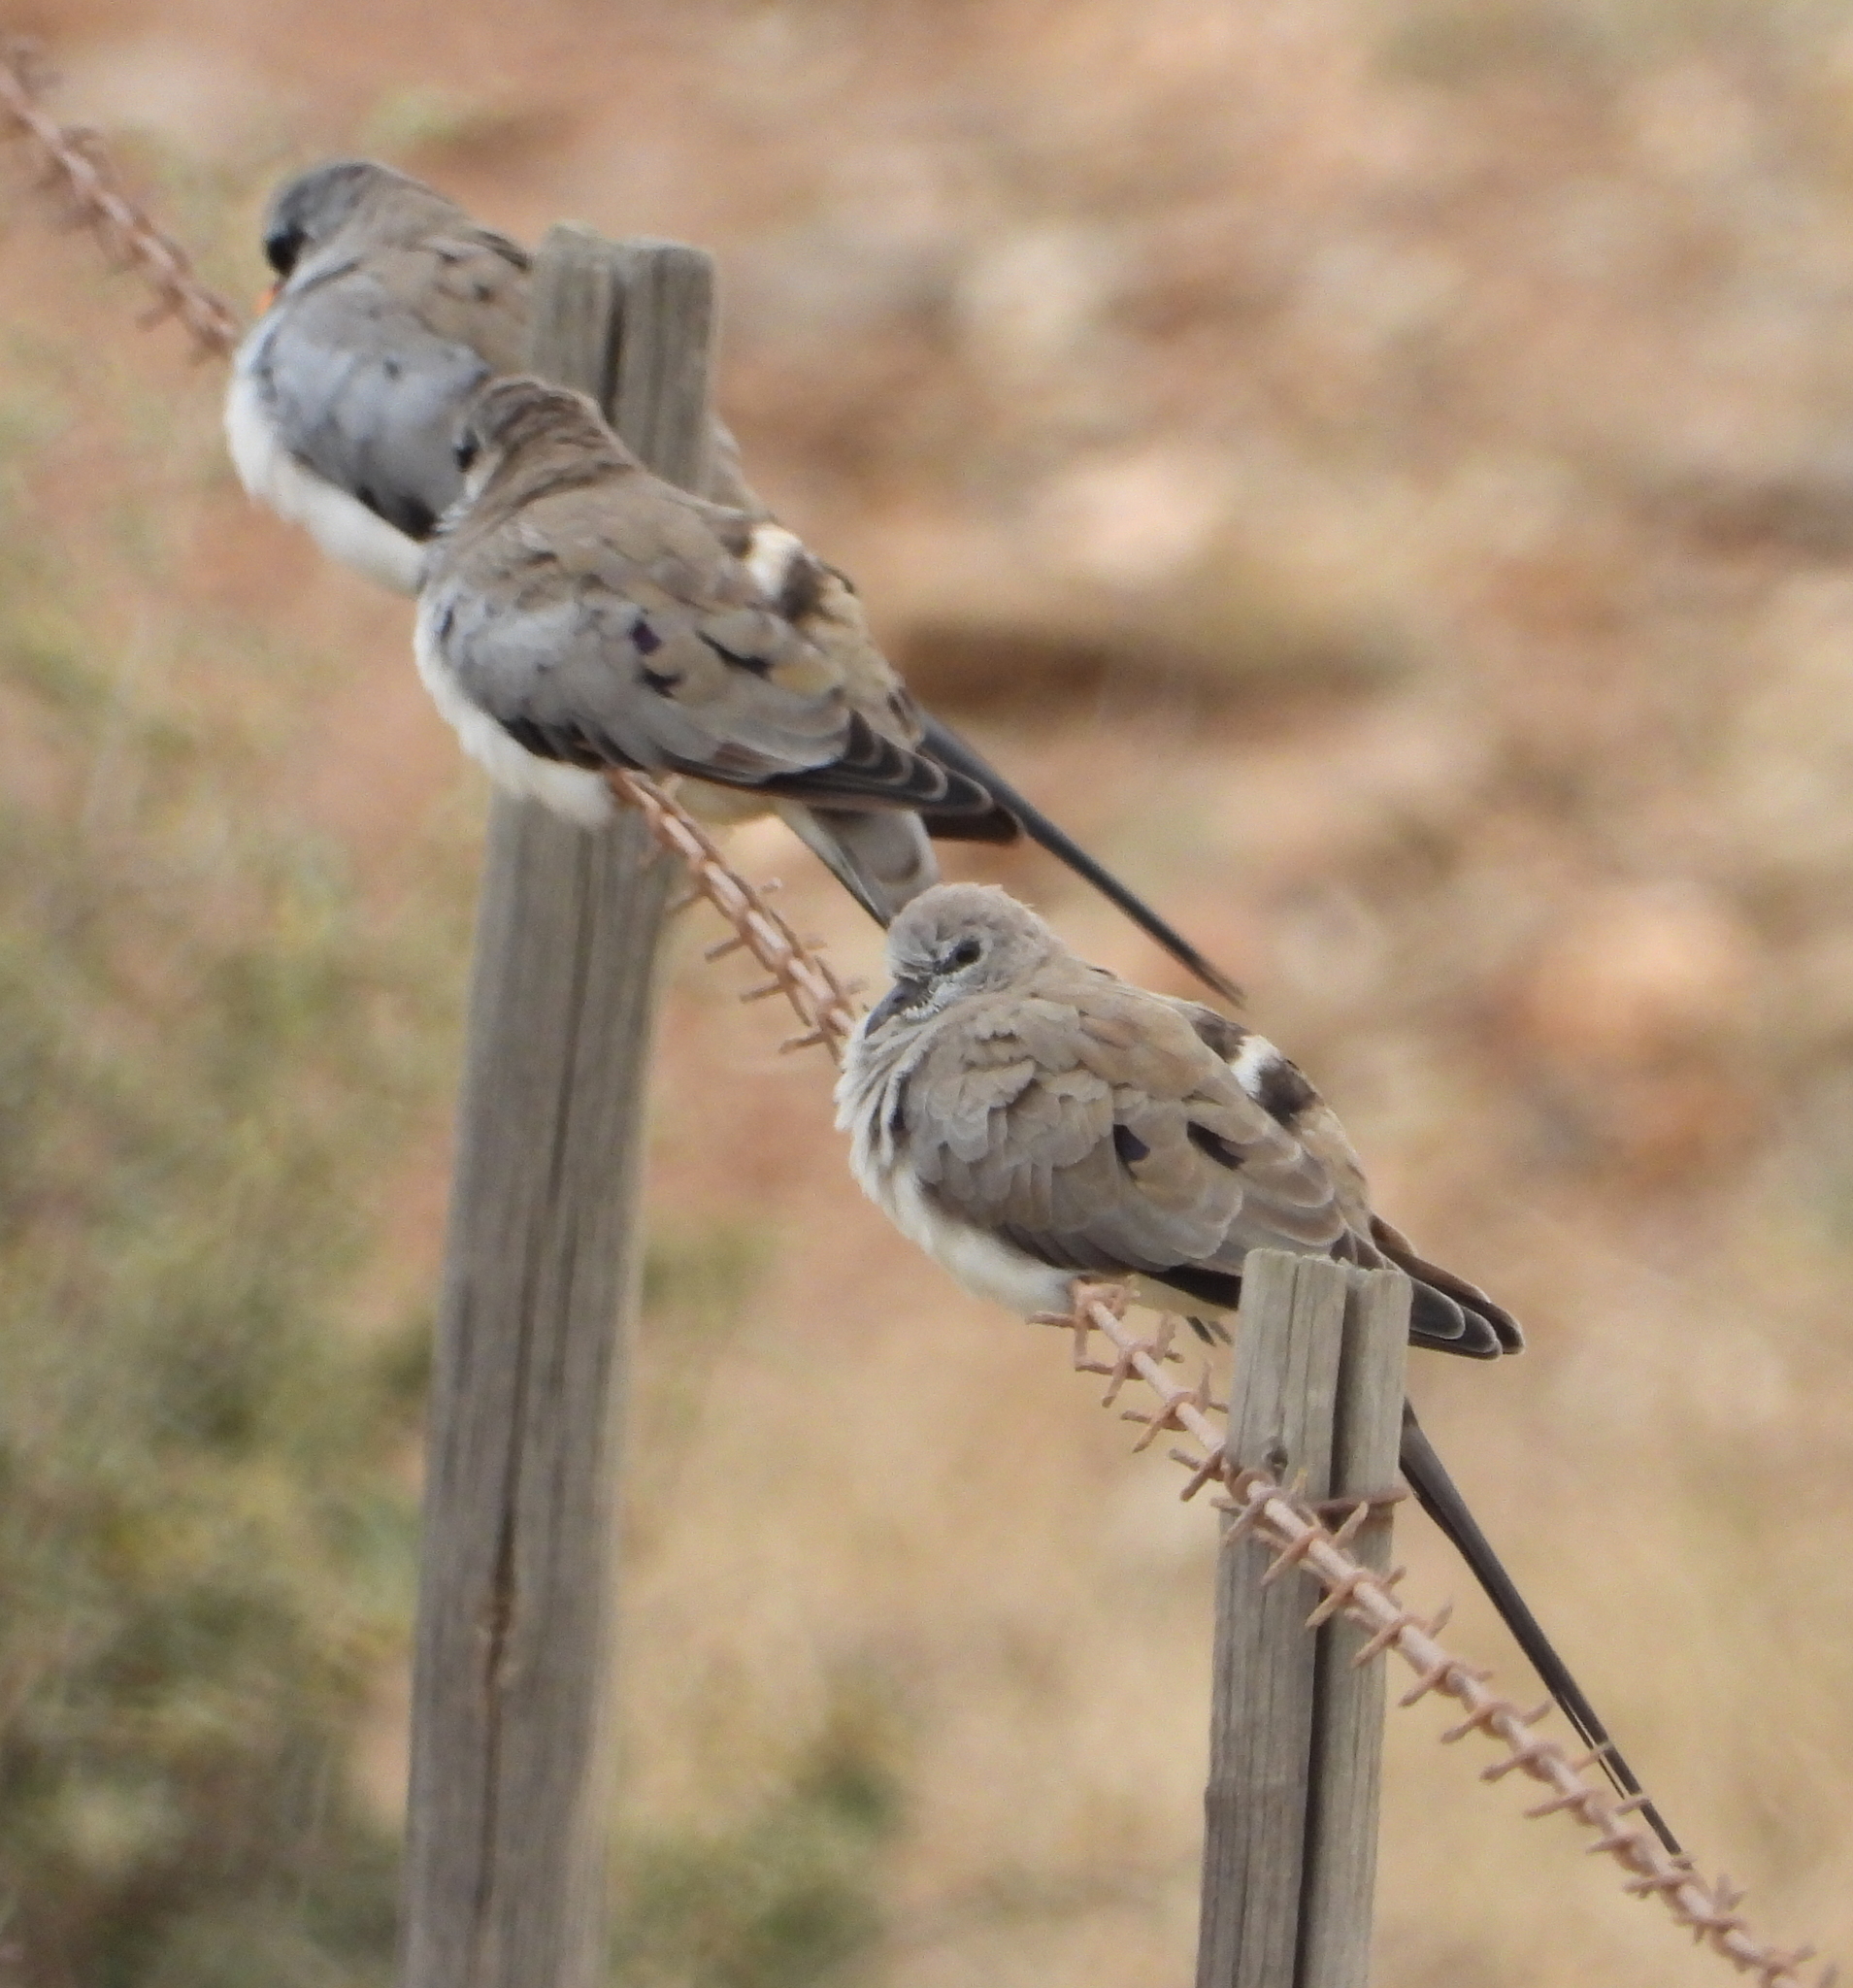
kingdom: Animalia
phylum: Chordata
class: Aves
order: Columbiformes
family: Columbidae
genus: Oena
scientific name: Oena capensis
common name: Namaqua dove
